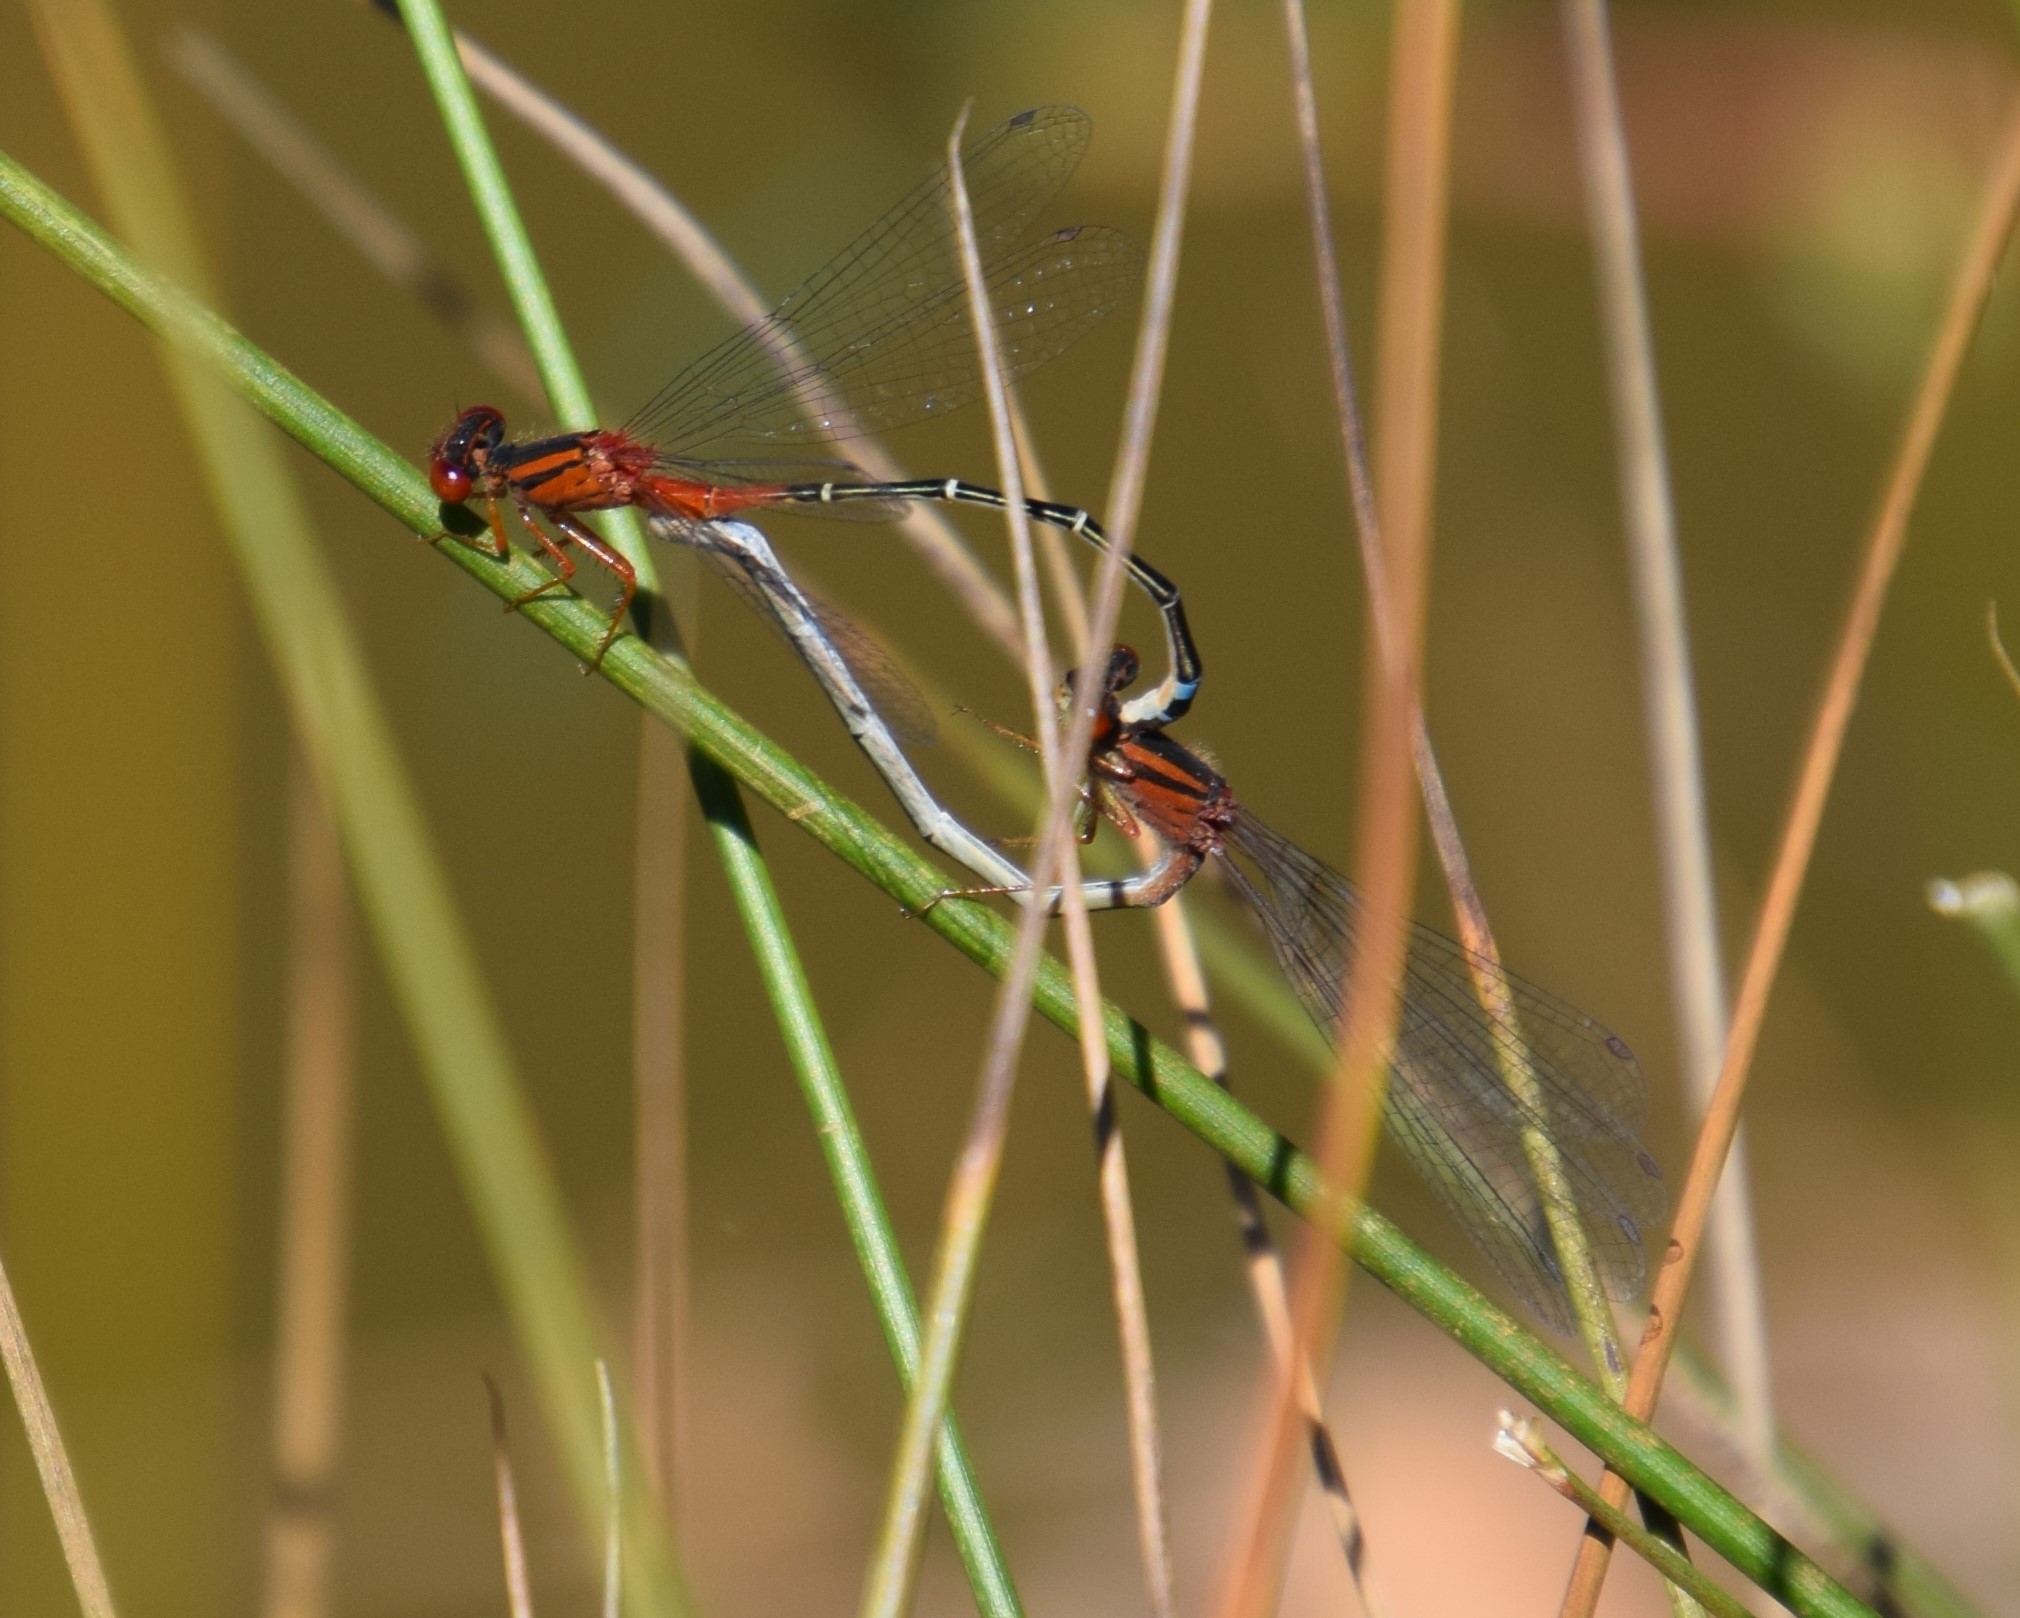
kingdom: Animalia
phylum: Arthropoda
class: Insecta
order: Odonata
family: Coenagrionidae
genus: Xanthagrion
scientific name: Xanthagrion erythroneurum
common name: Red and blue damsel
